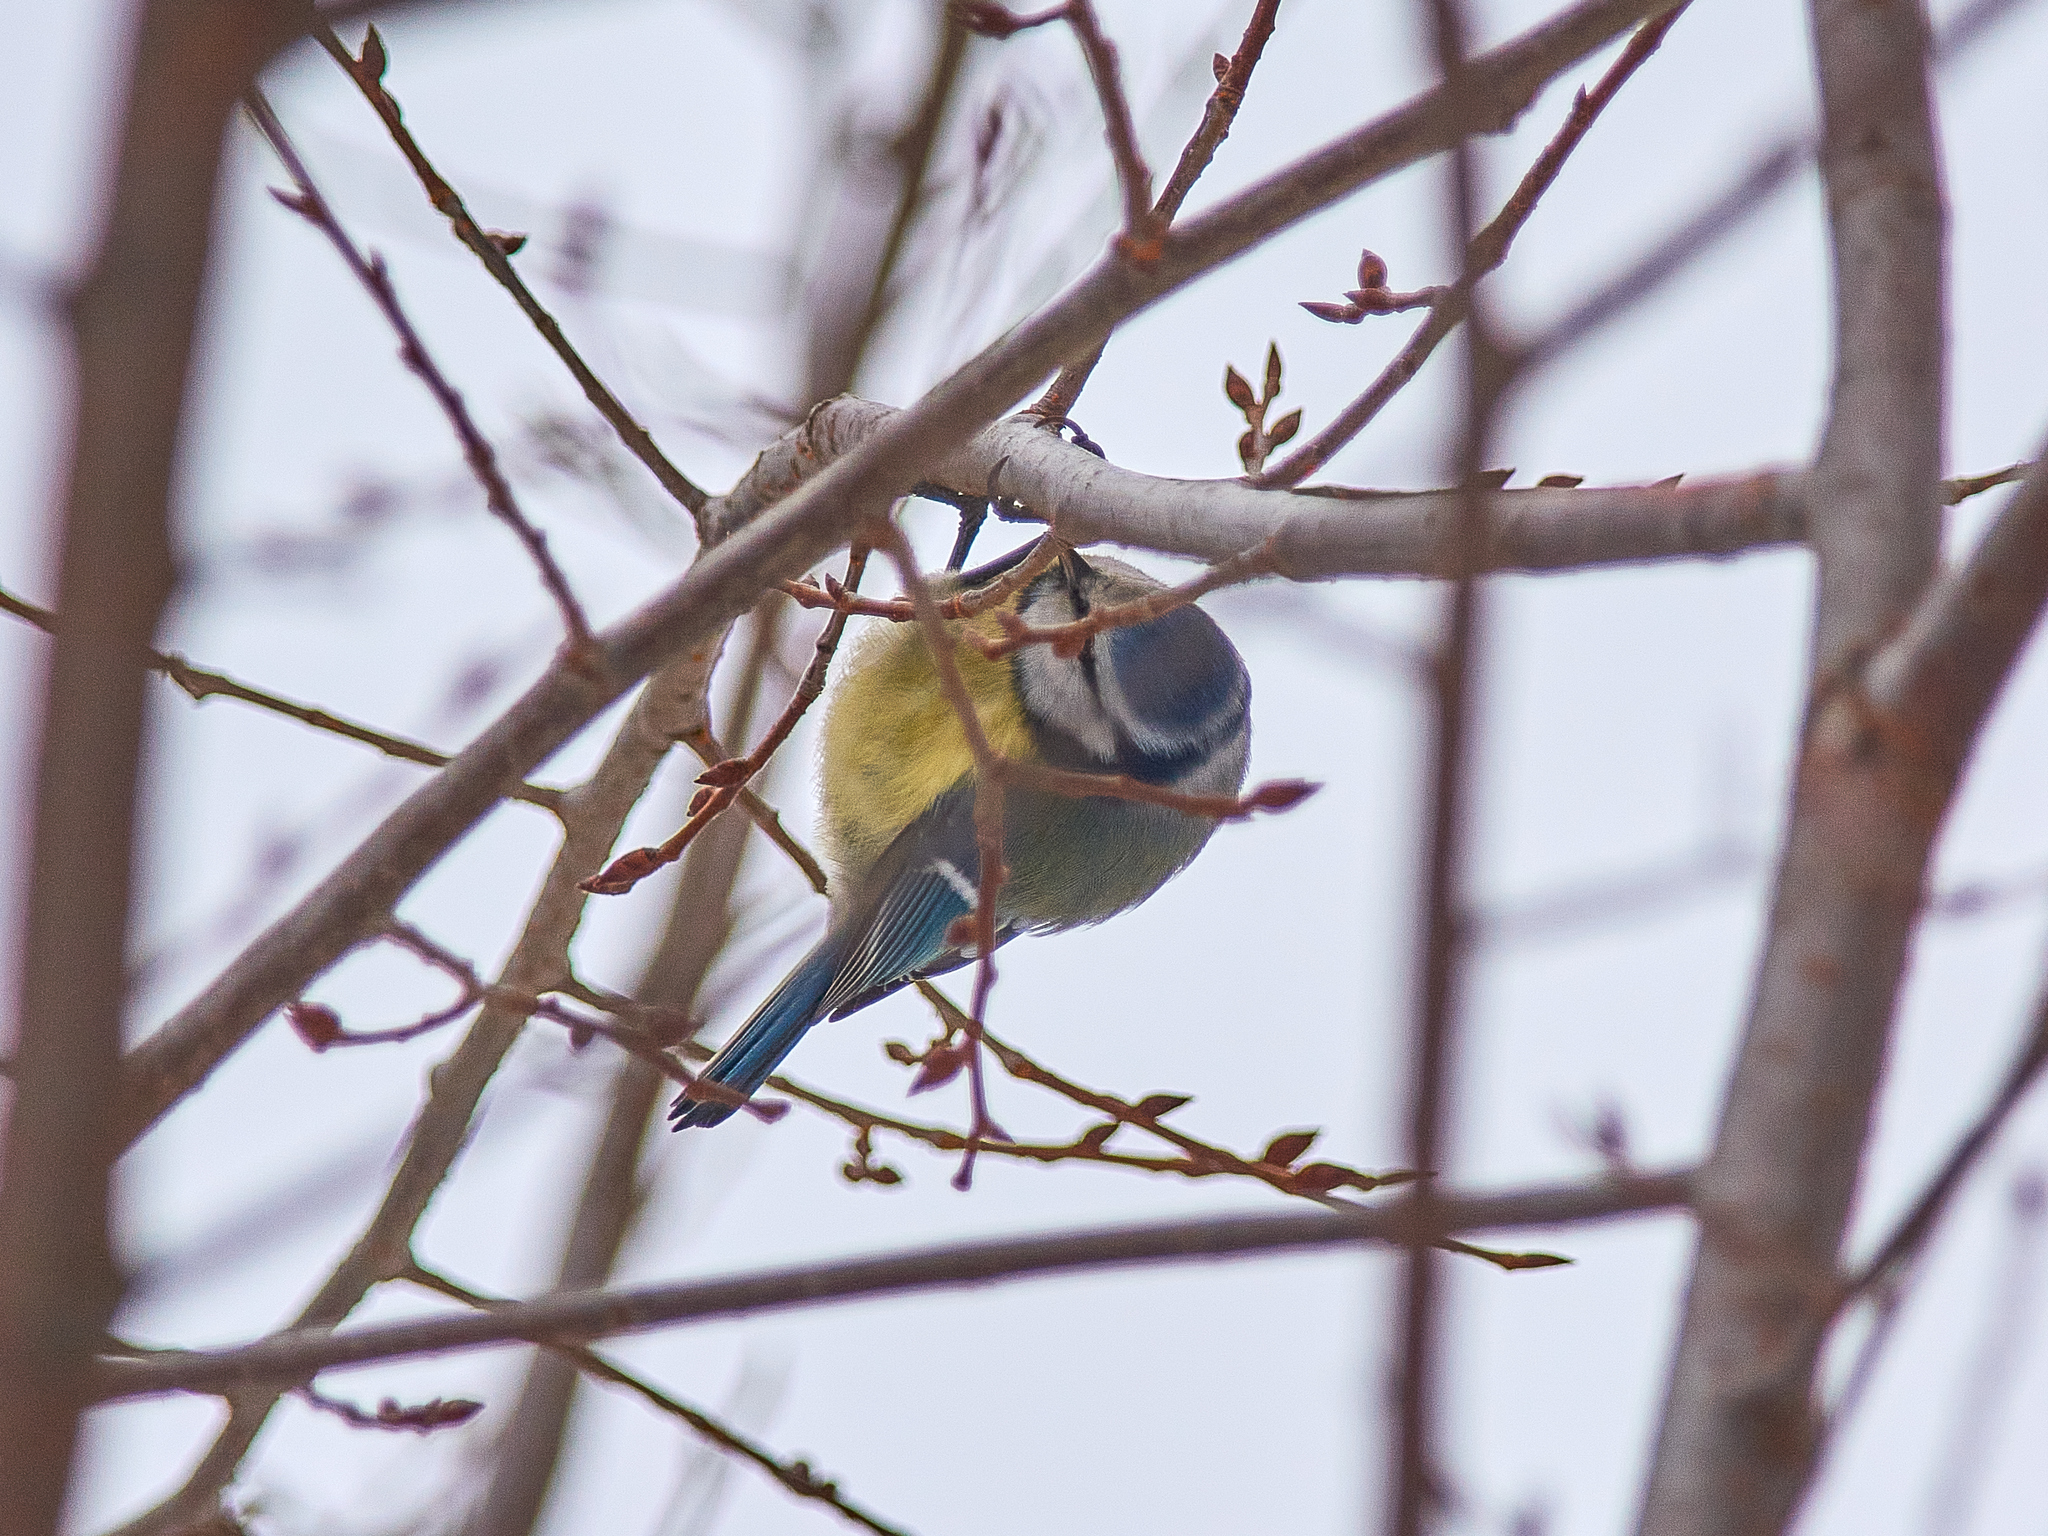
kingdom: Animalia
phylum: Chordata
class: Aves
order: Passeriformes
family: Paridae
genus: Cyanistes
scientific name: Cyanistes caeruleus
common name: Eurasian blue tit
